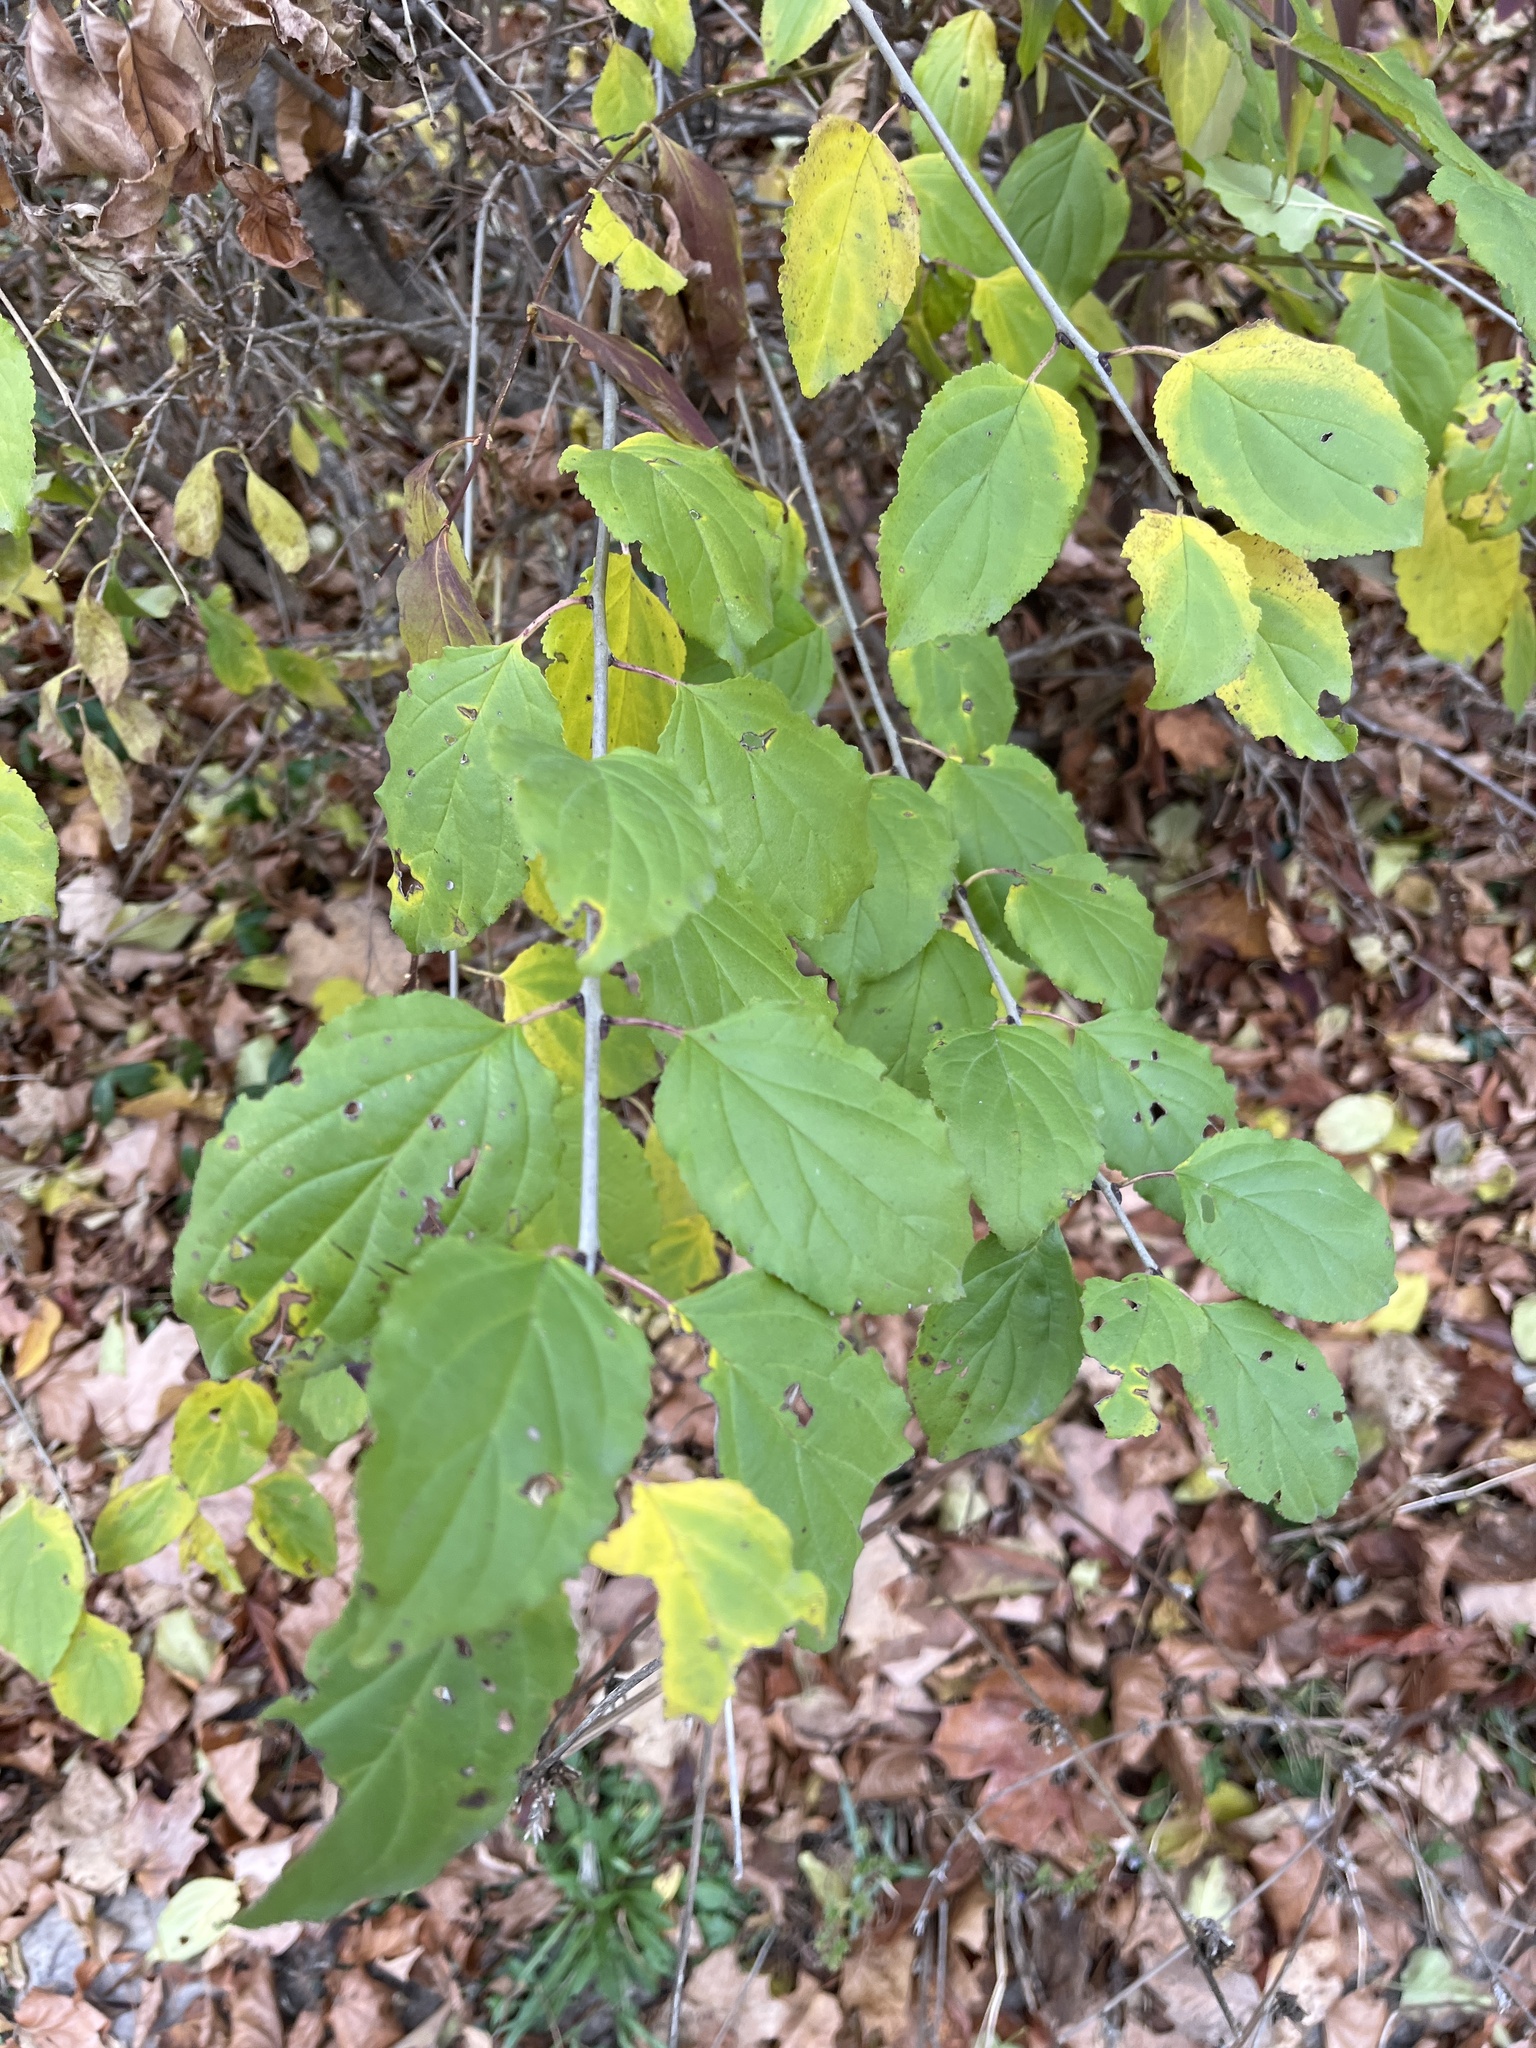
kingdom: Plantae
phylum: Tracheophyta
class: Magnoliopsida
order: Rosales
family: Rhamnaceae
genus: Rhamnus
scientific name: Rhamnus cathartica
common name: Common buckthorn
